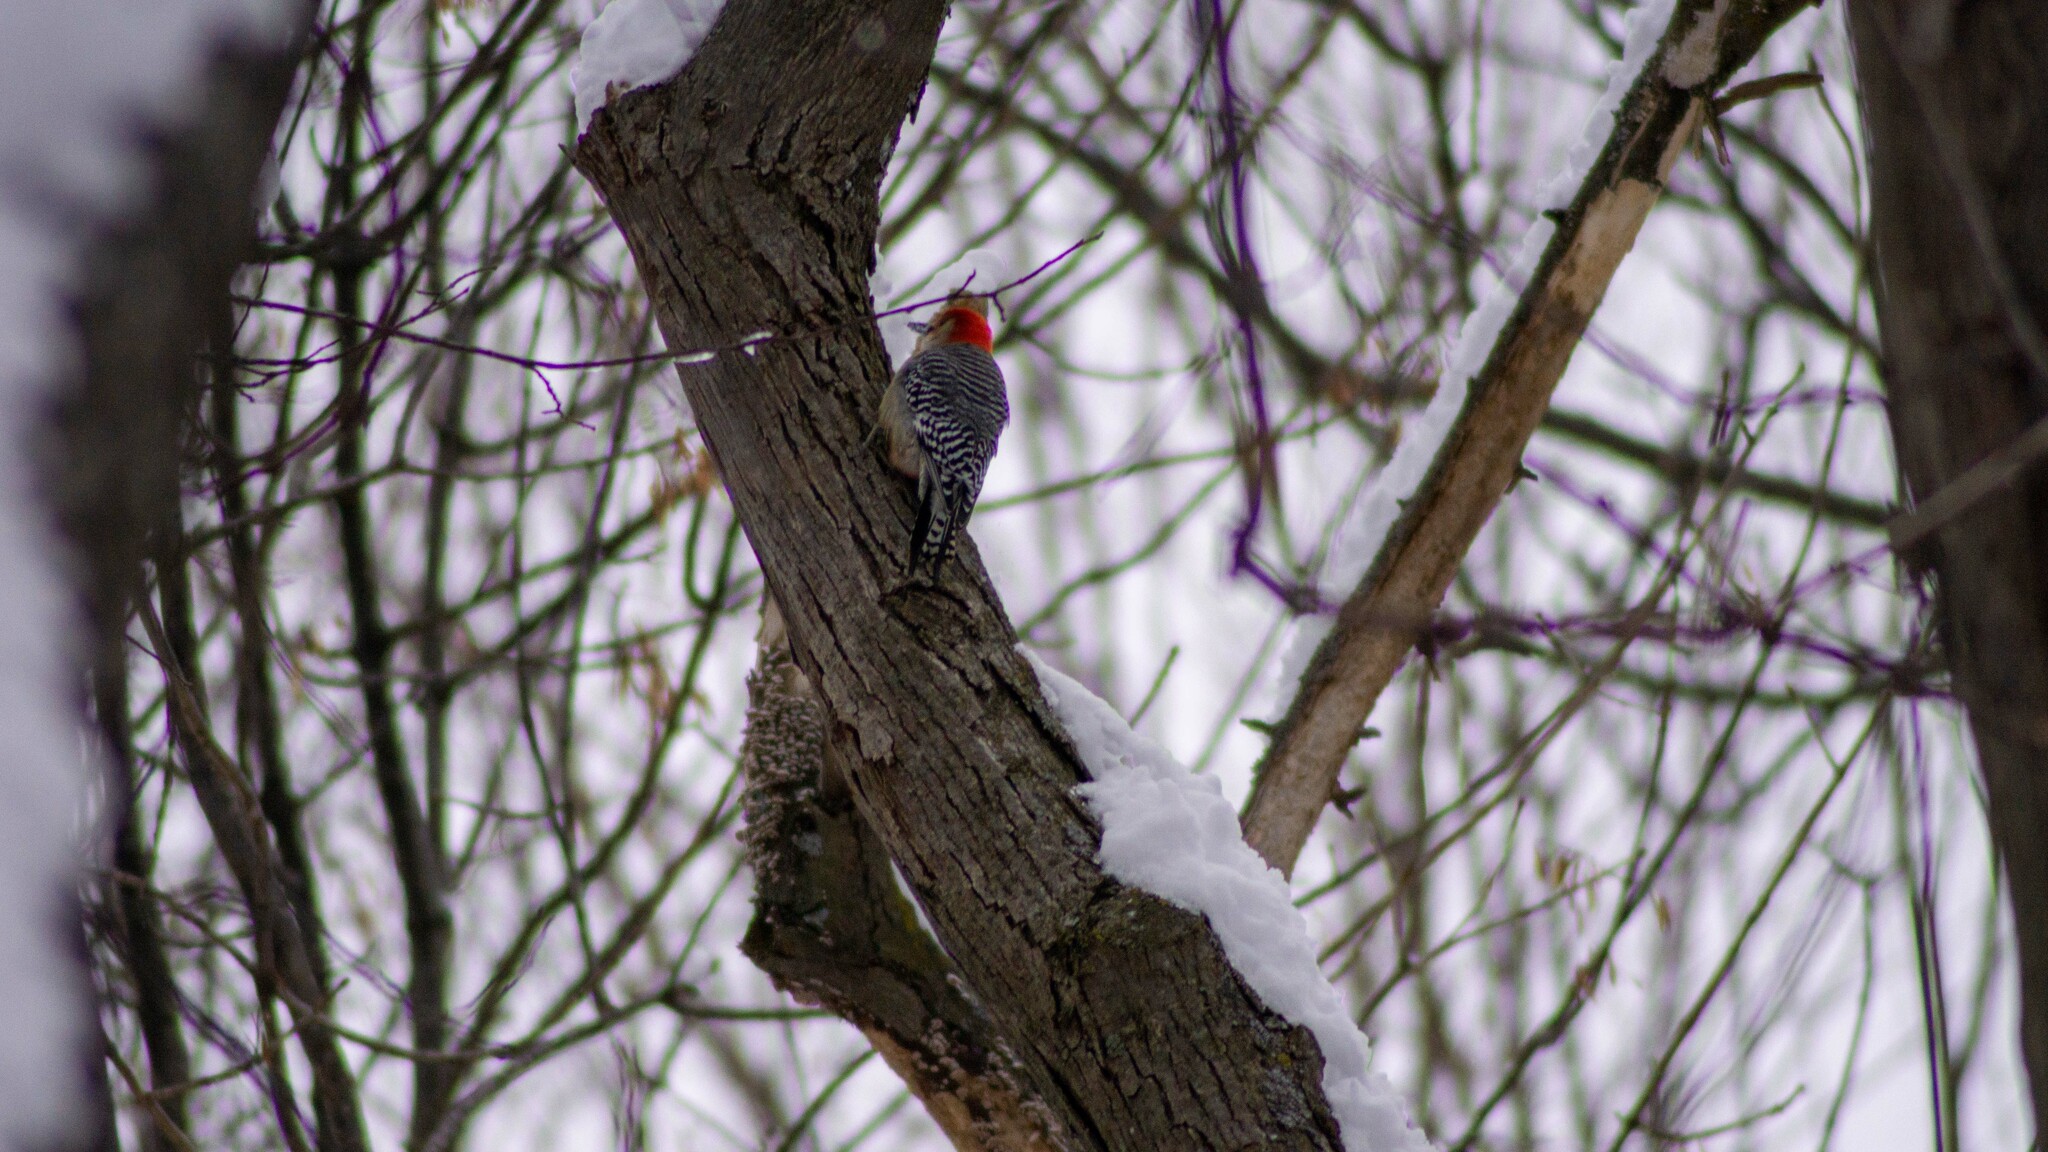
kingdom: Animalia
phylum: Chordata
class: Aves
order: Piciformes
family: Picidae
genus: Melanerpes
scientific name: Melanerpes carolinus
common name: Red-bellied woodpecker
